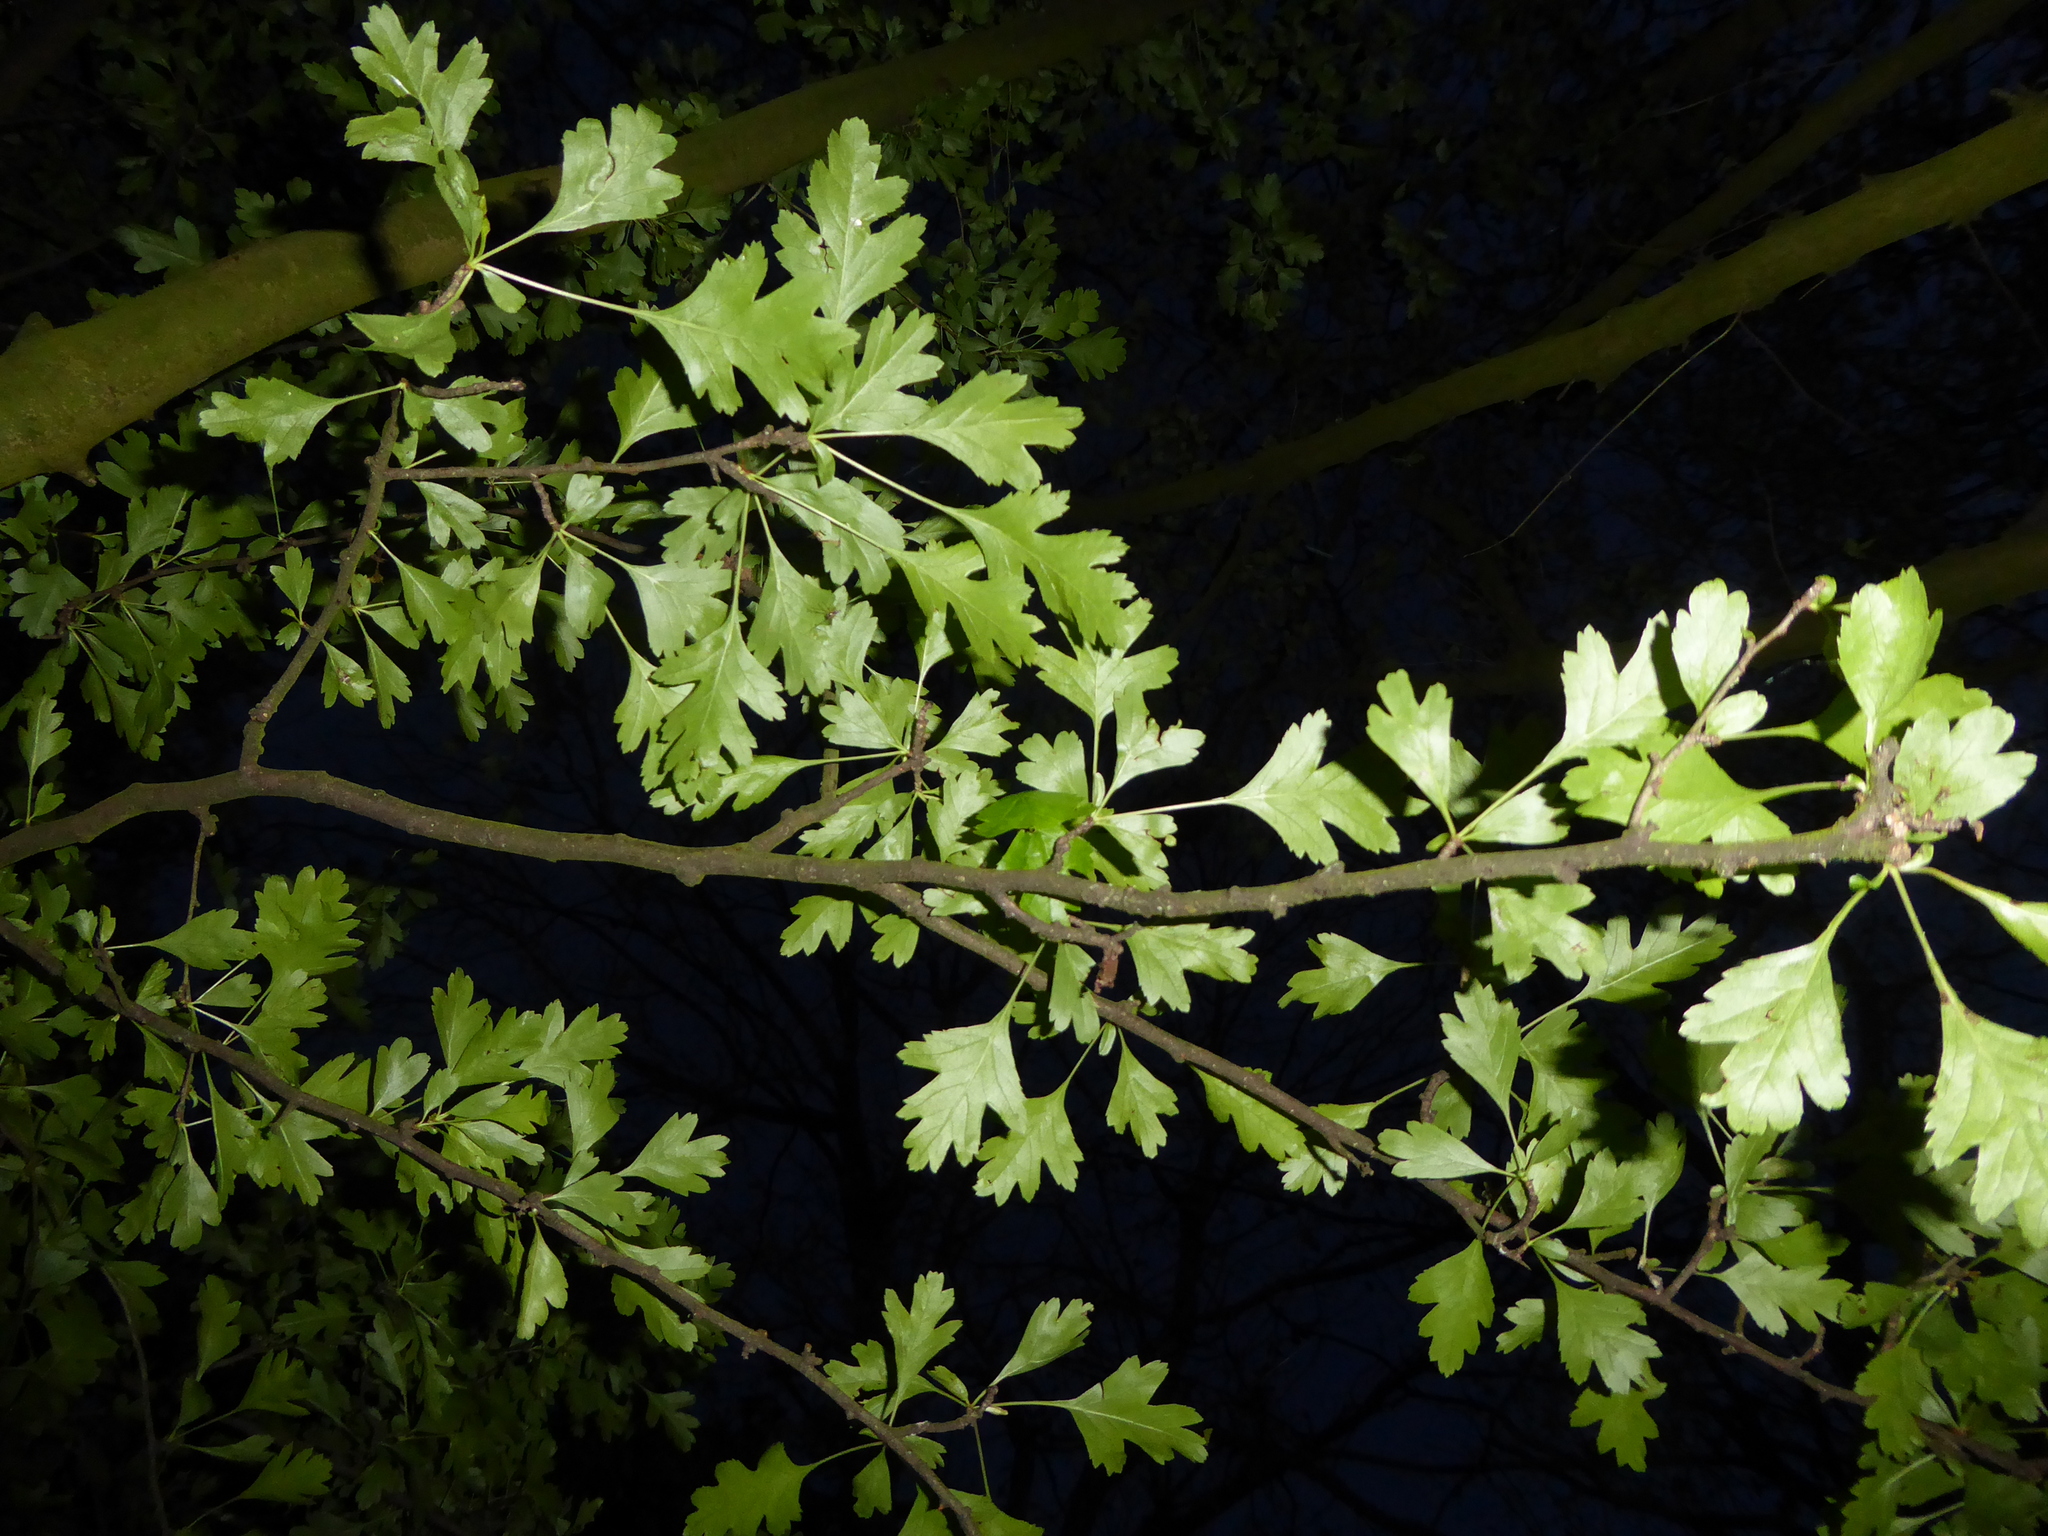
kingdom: Plantae
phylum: Tracheophyta
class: Magnoliopsida
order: Rosales
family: Rosaceae
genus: Crataegus
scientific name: Crataegus monogyna
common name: Hawthorn
